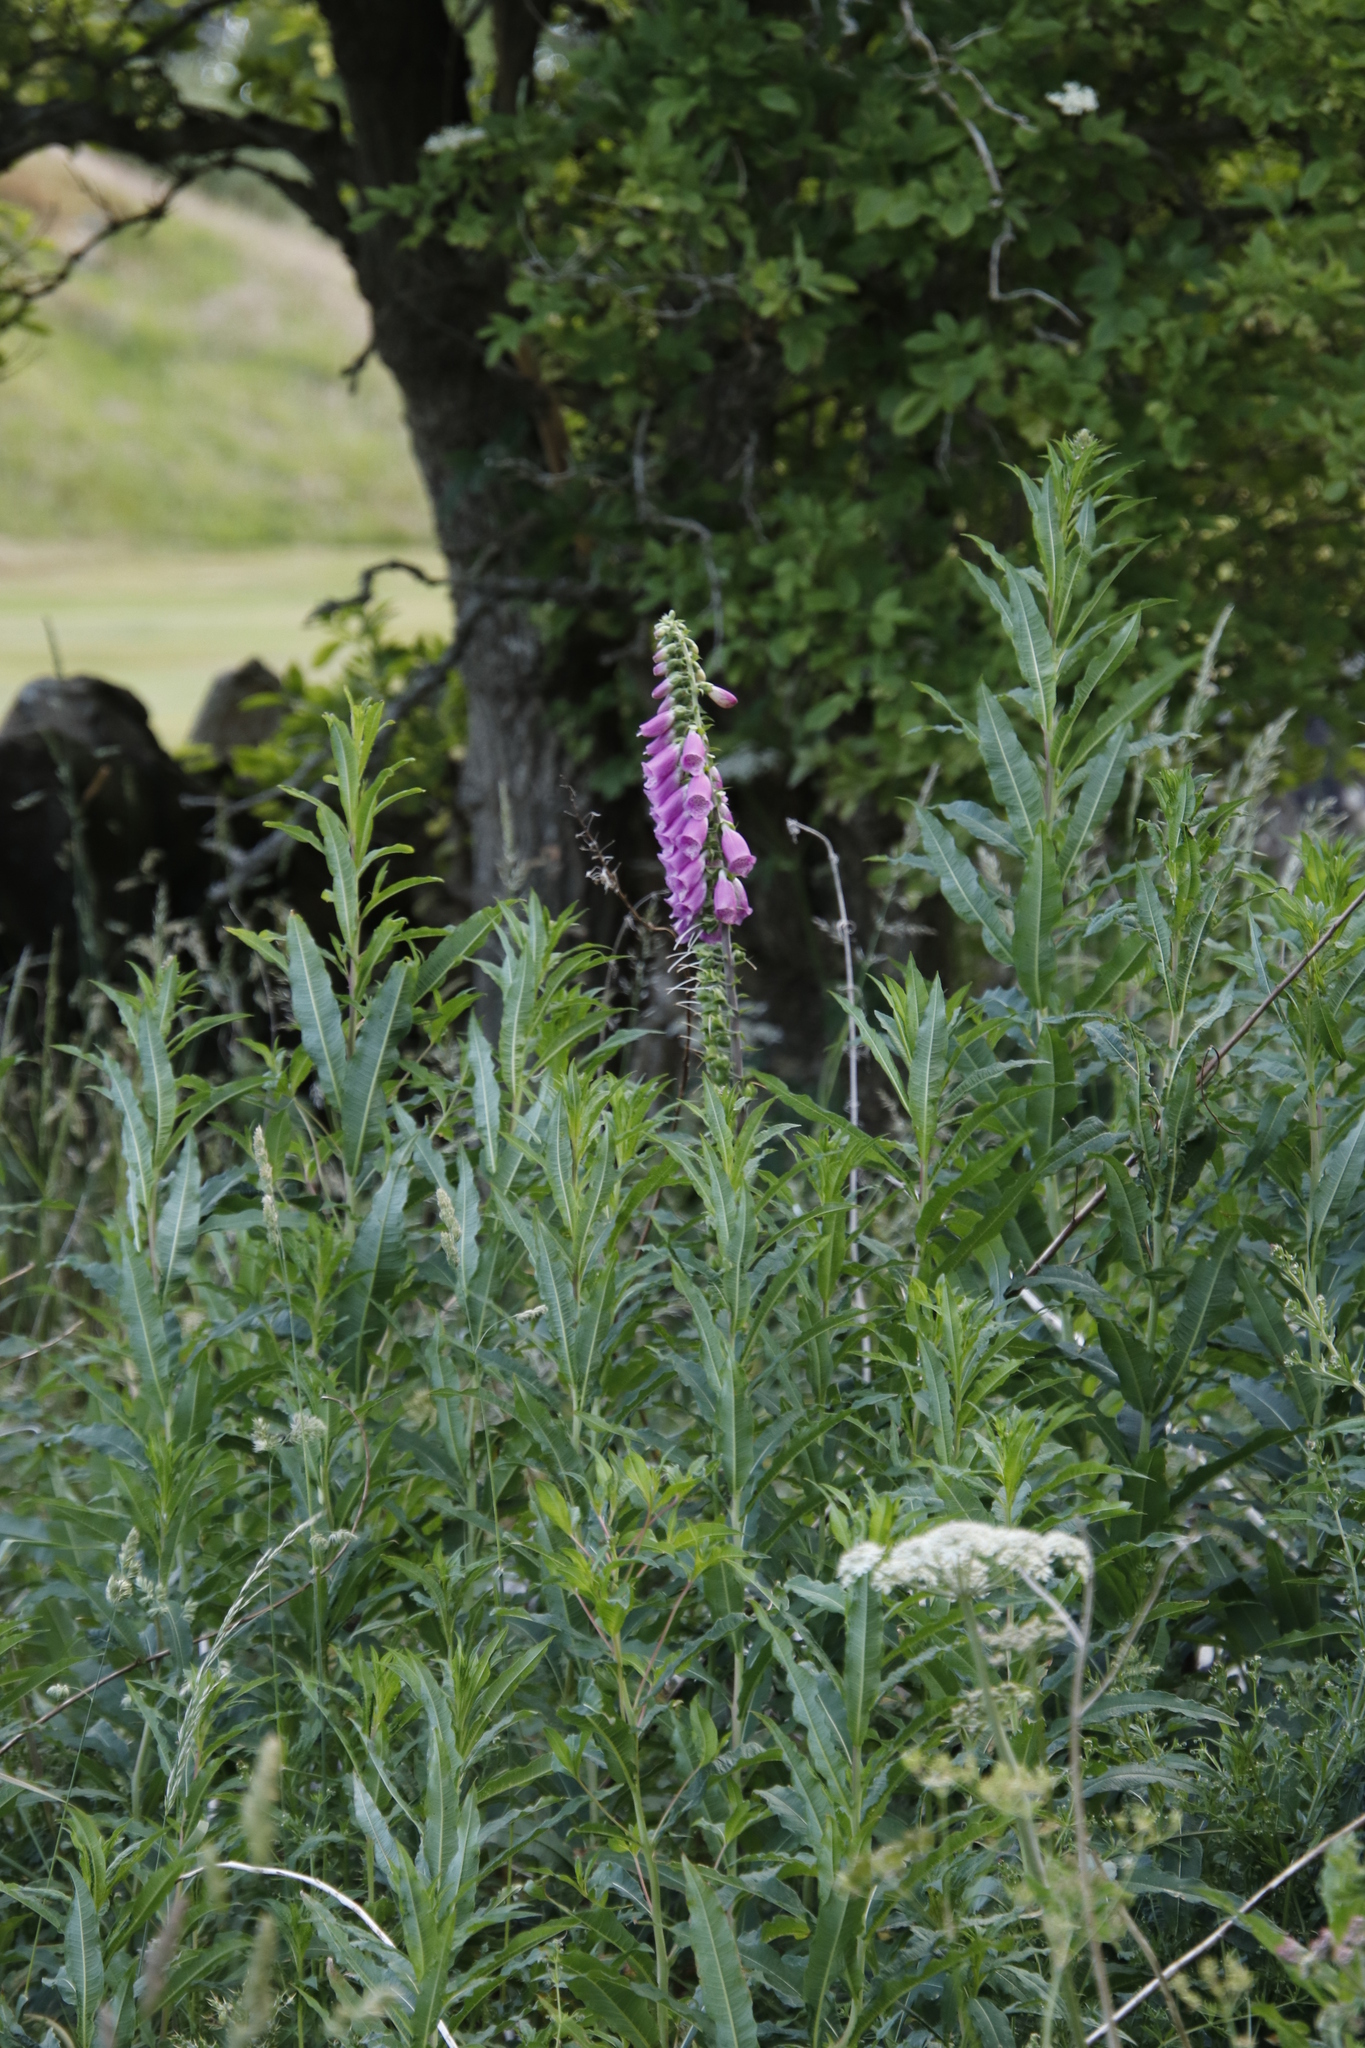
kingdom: Plantae
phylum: Tracheophyta
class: Magnoliopsida
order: Lamiales
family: Plantaginaceae
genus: Digitalis
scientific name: Digitalis purpurea
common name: Foxglove
